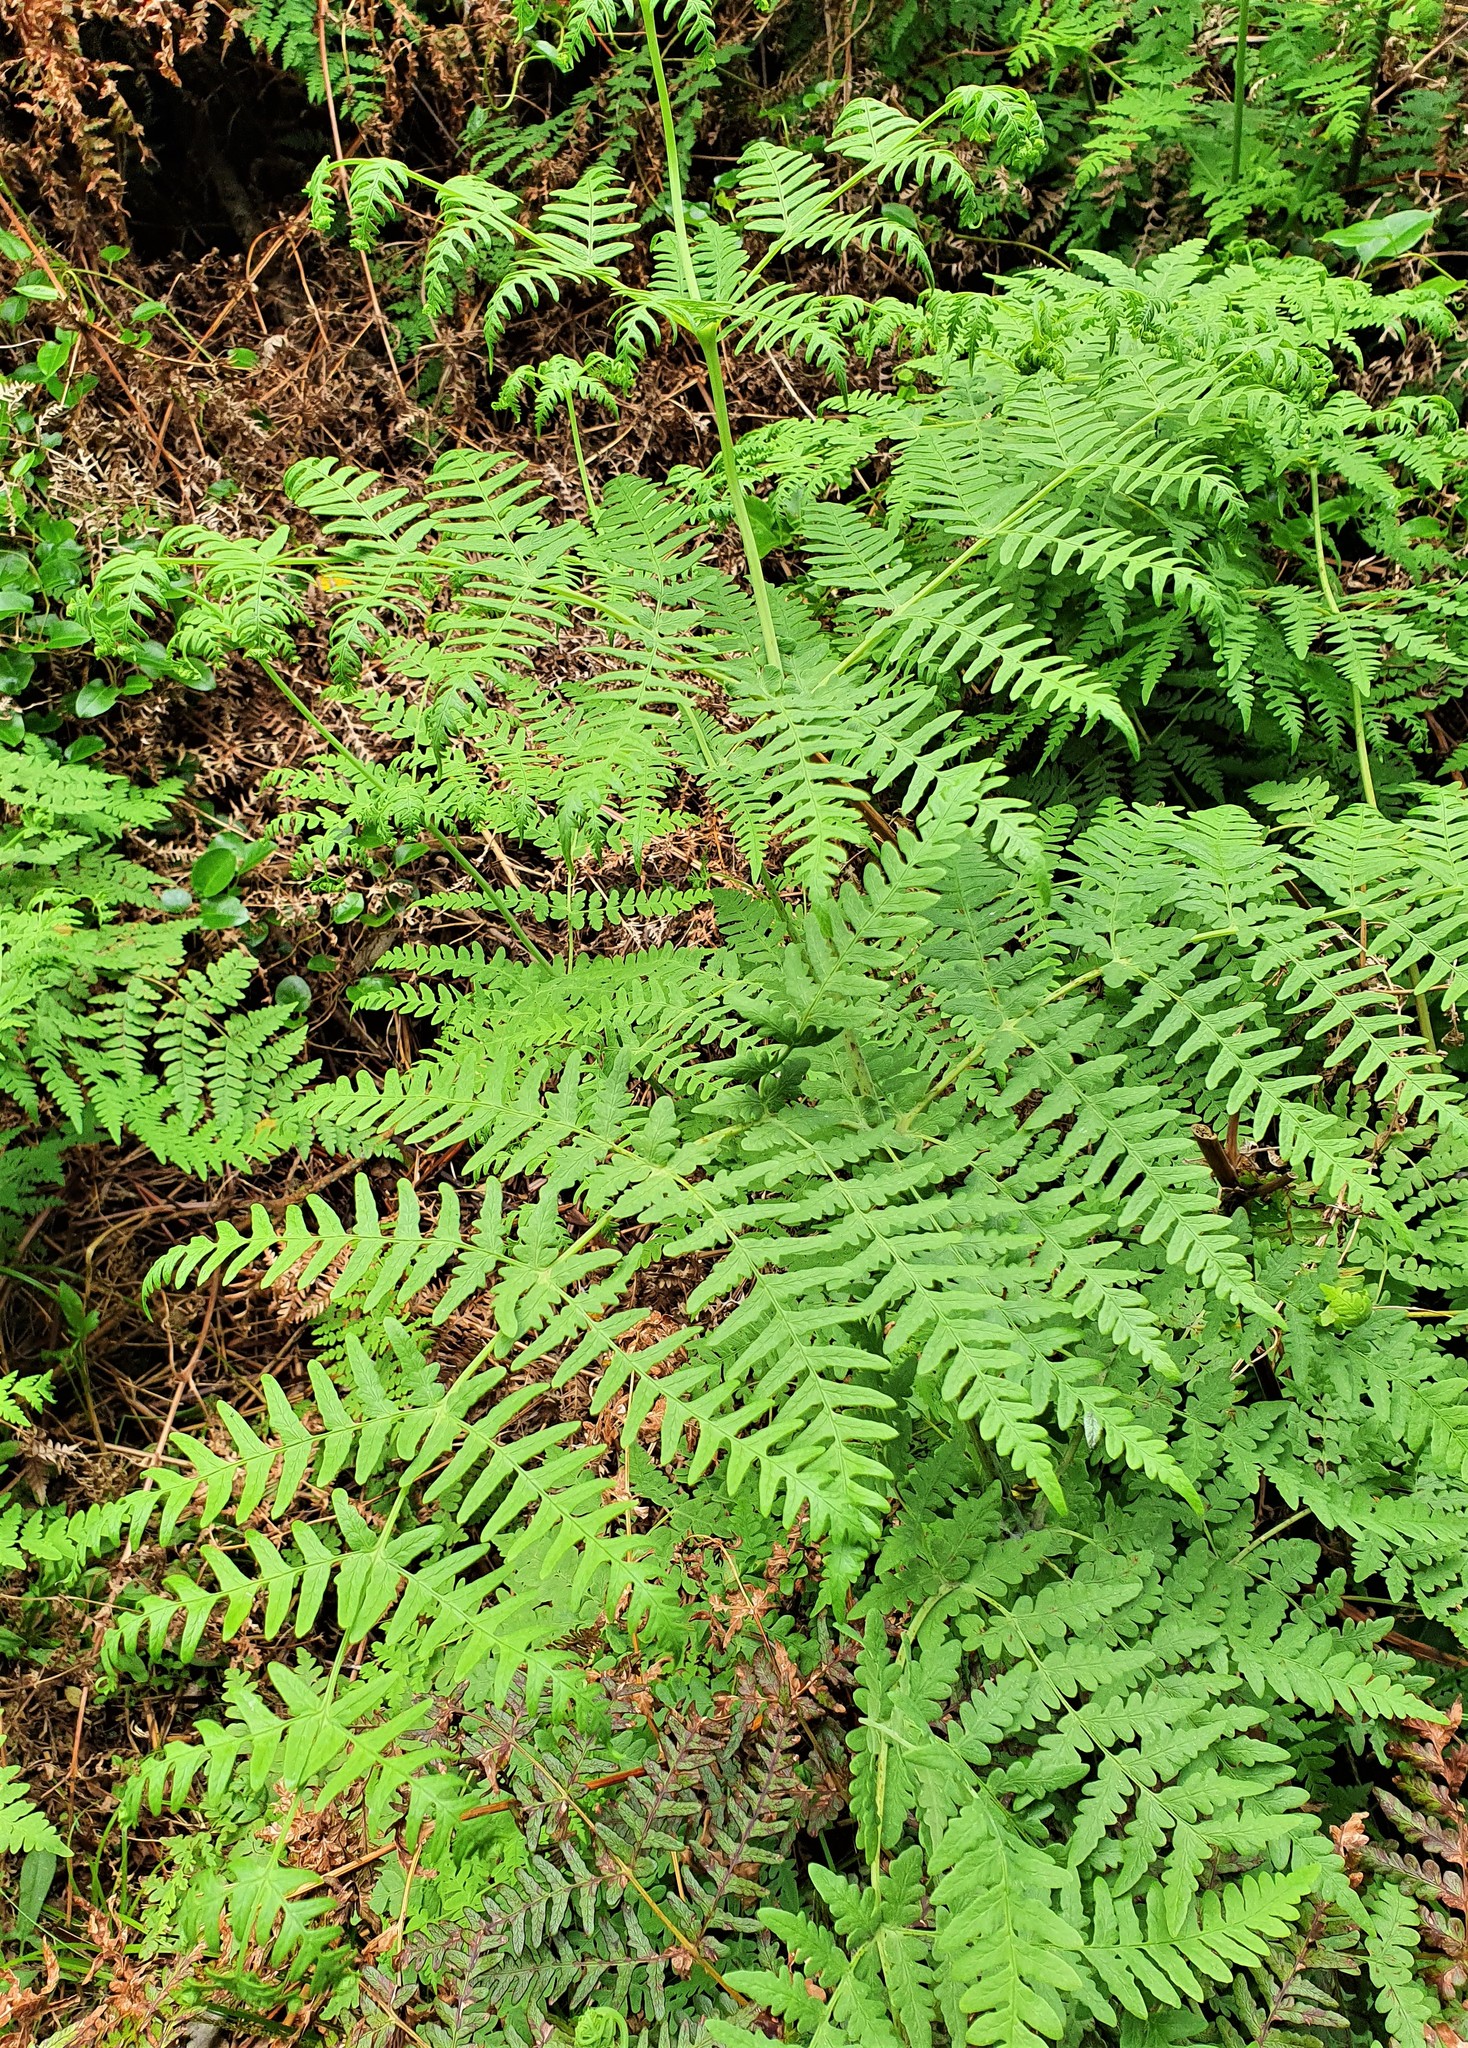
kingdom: Plantae
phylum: Tracheophyta
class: Polypodiopsida
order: Polypodiales
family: Dennstaedtiaceae
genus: Histiopteris
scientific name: Histiopteris incisa
